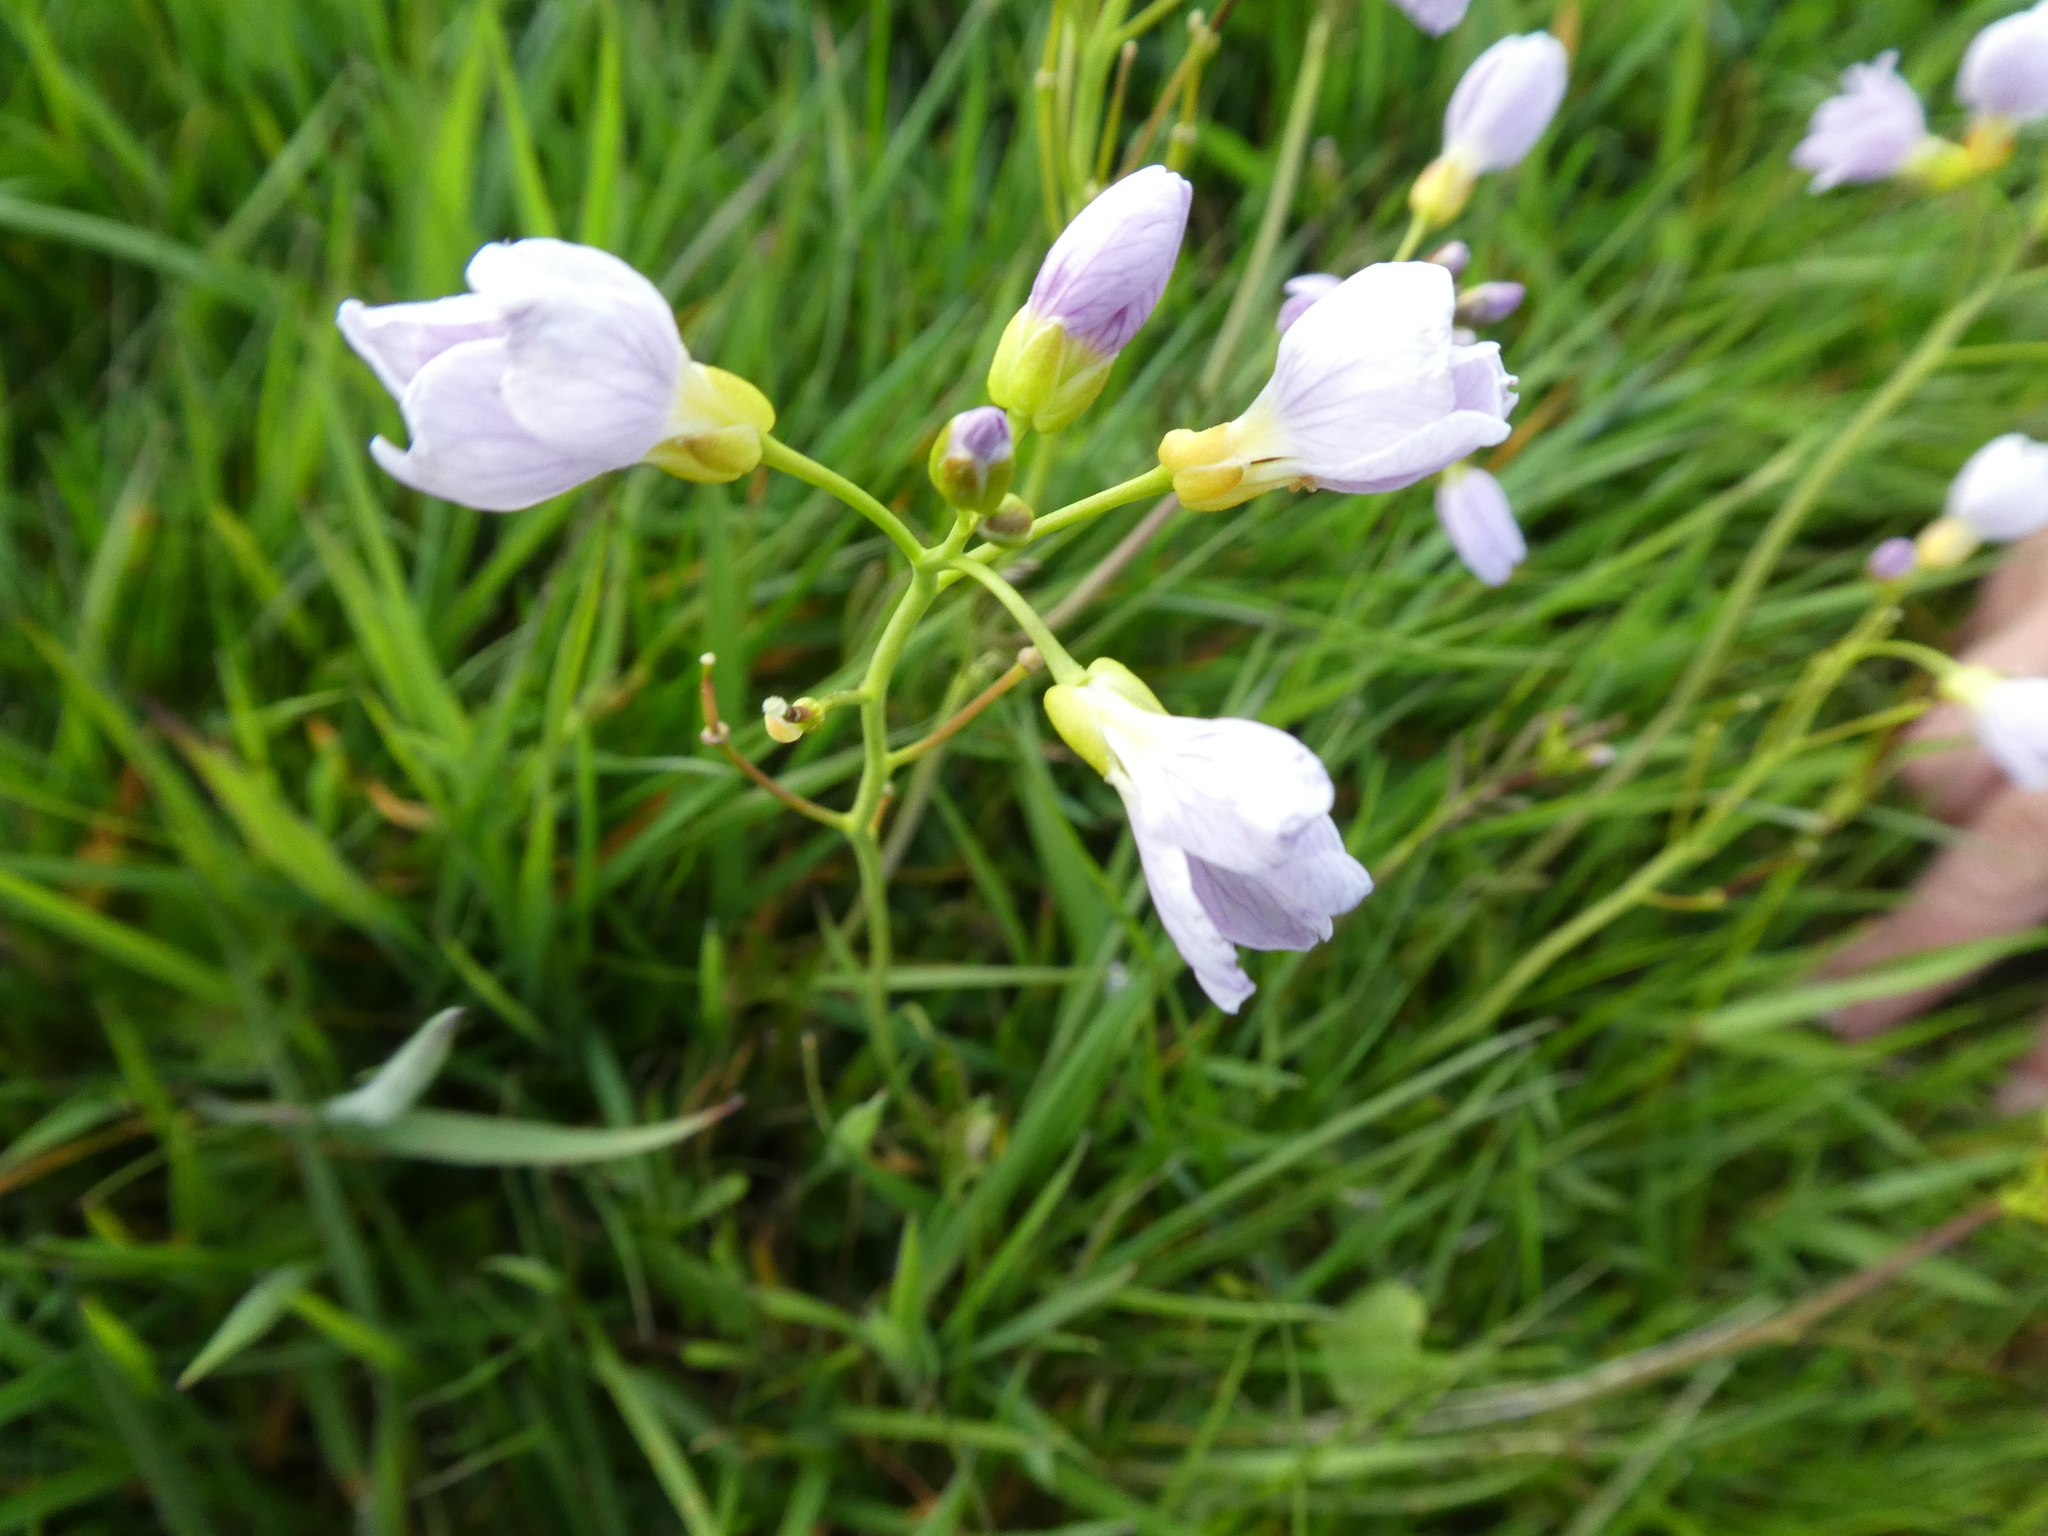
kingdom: Plantae
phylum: Tracheophyta
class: Magnoliopsida
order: Brassicales
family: Brassicaceae
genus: Cardamine
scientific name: Cardamine pratensis
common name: Cuckoo flower
